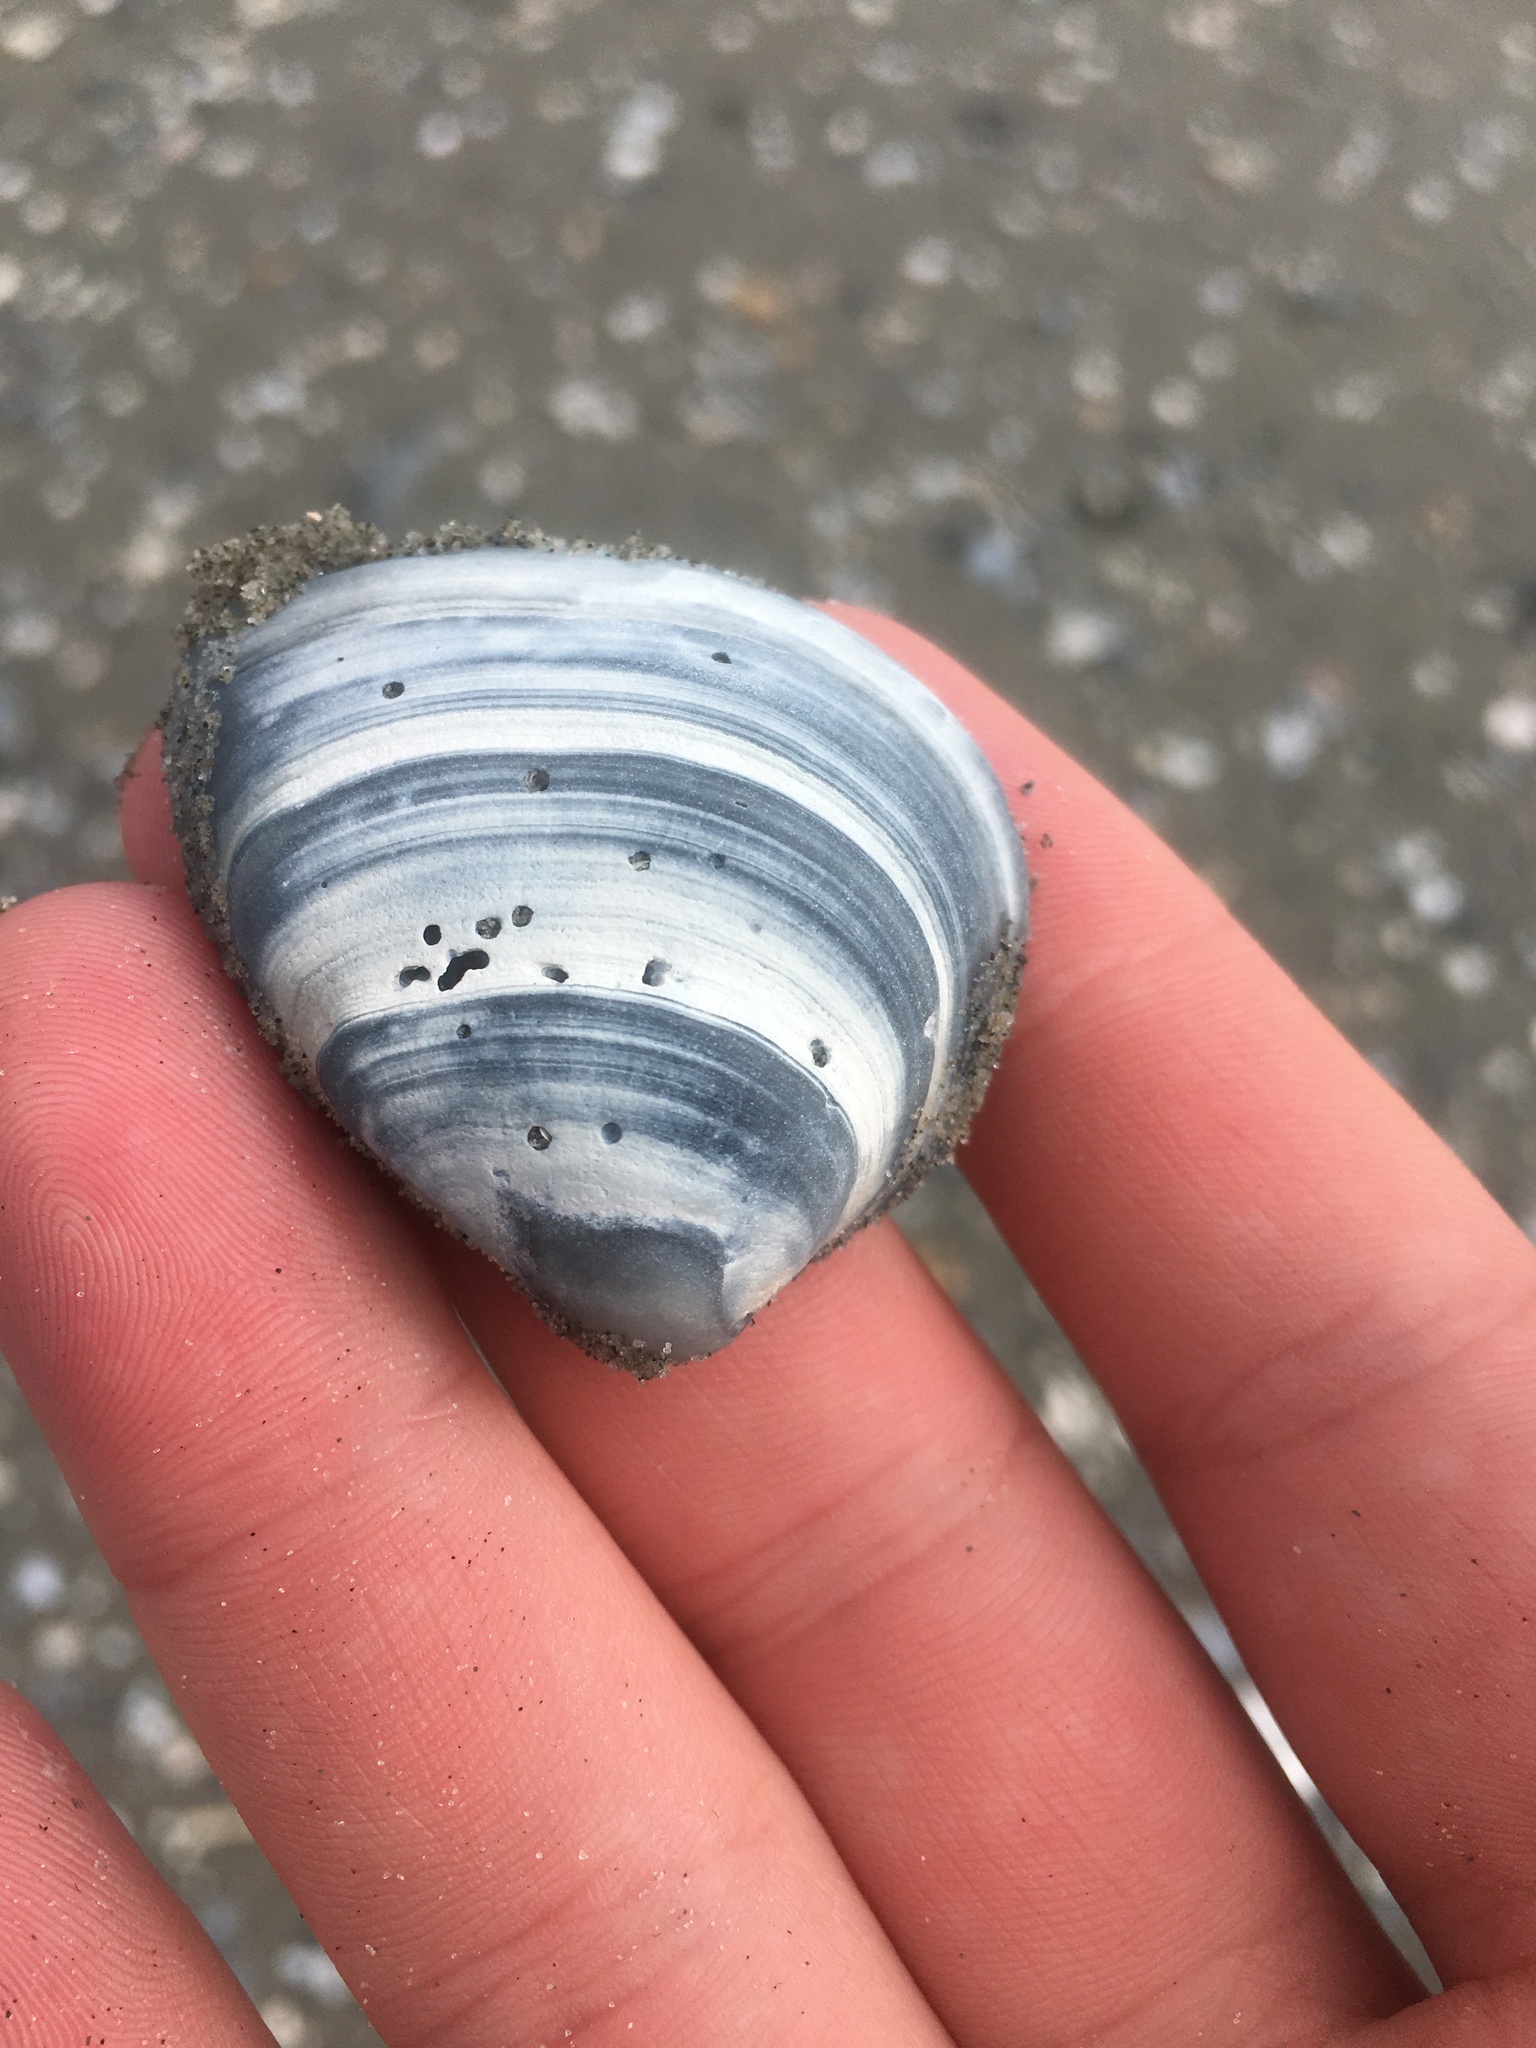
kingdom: Animalia
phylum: Mollusca
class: Bivalvia
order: Venerida
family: Mactridae
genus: Rangia
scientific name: Rangia cuneata
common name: Atlantic rangia
